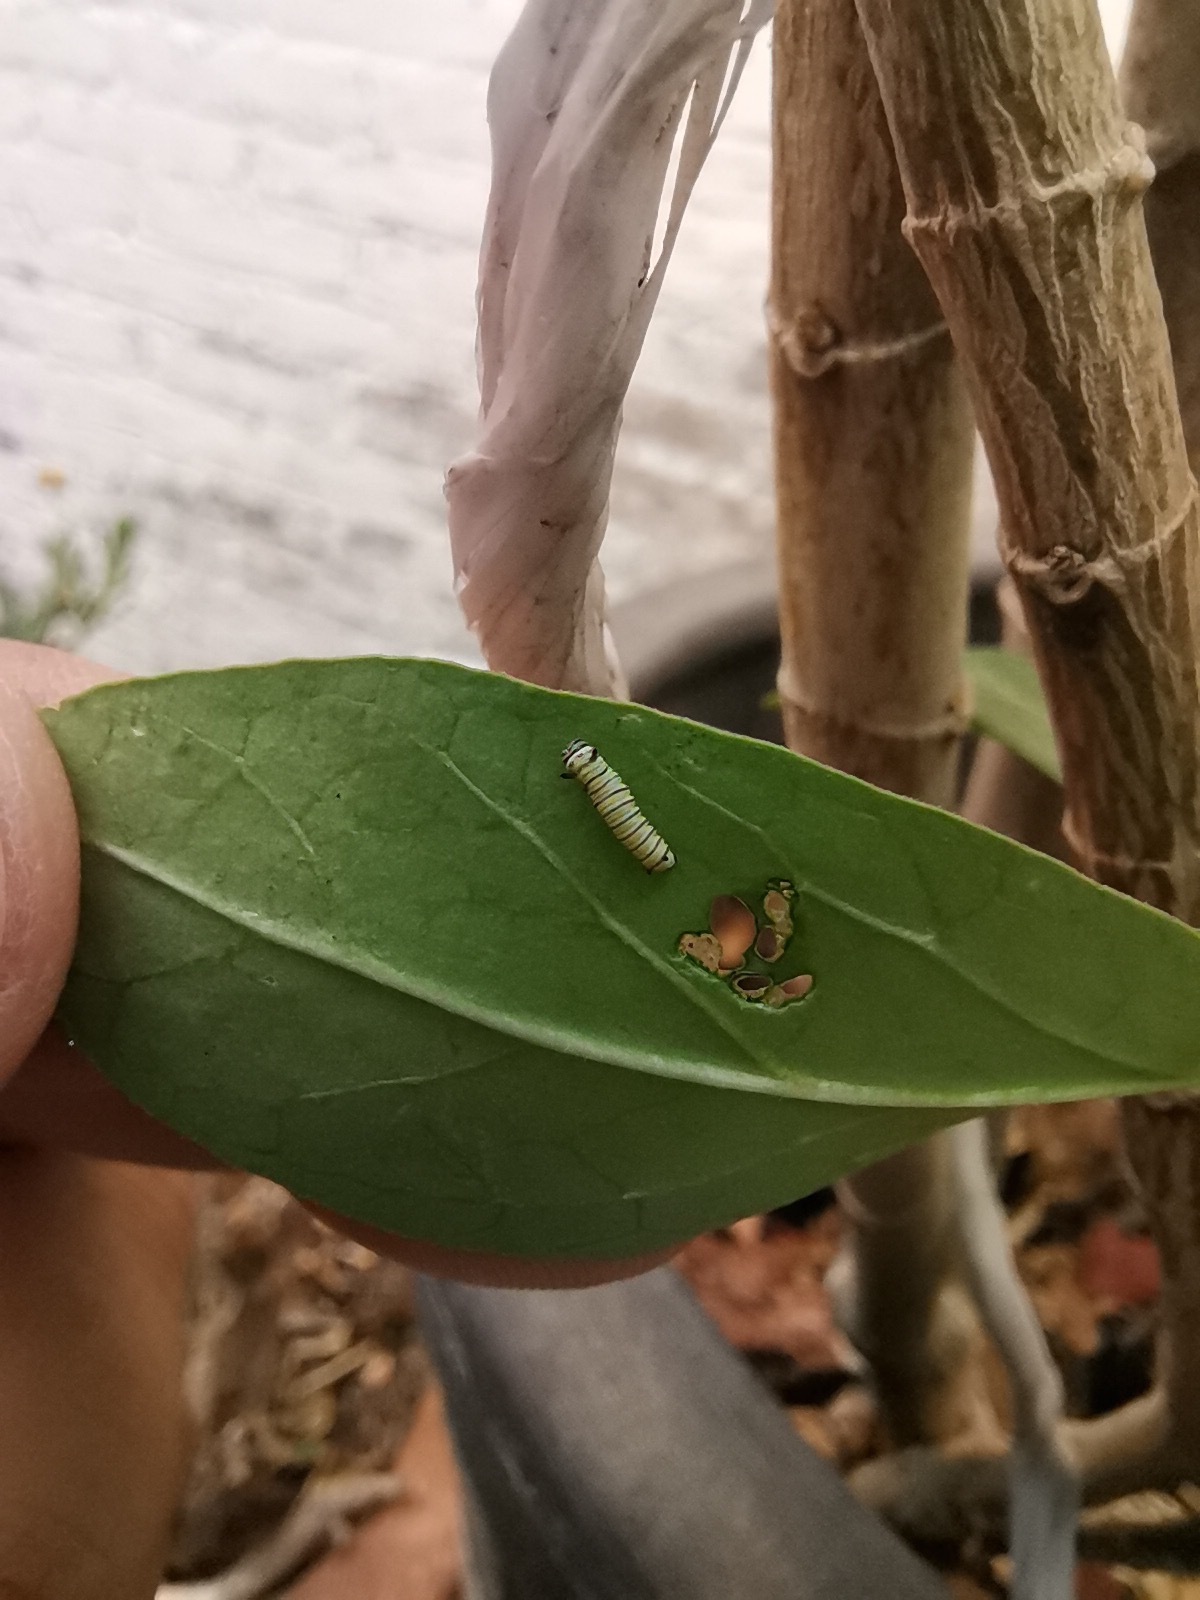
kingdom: Animalia
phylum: Arthropoda
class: Insecta
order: Lepidoptera
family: Nymphalidae
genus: Danaus
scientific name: Danaus plexippus
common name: Monarch
